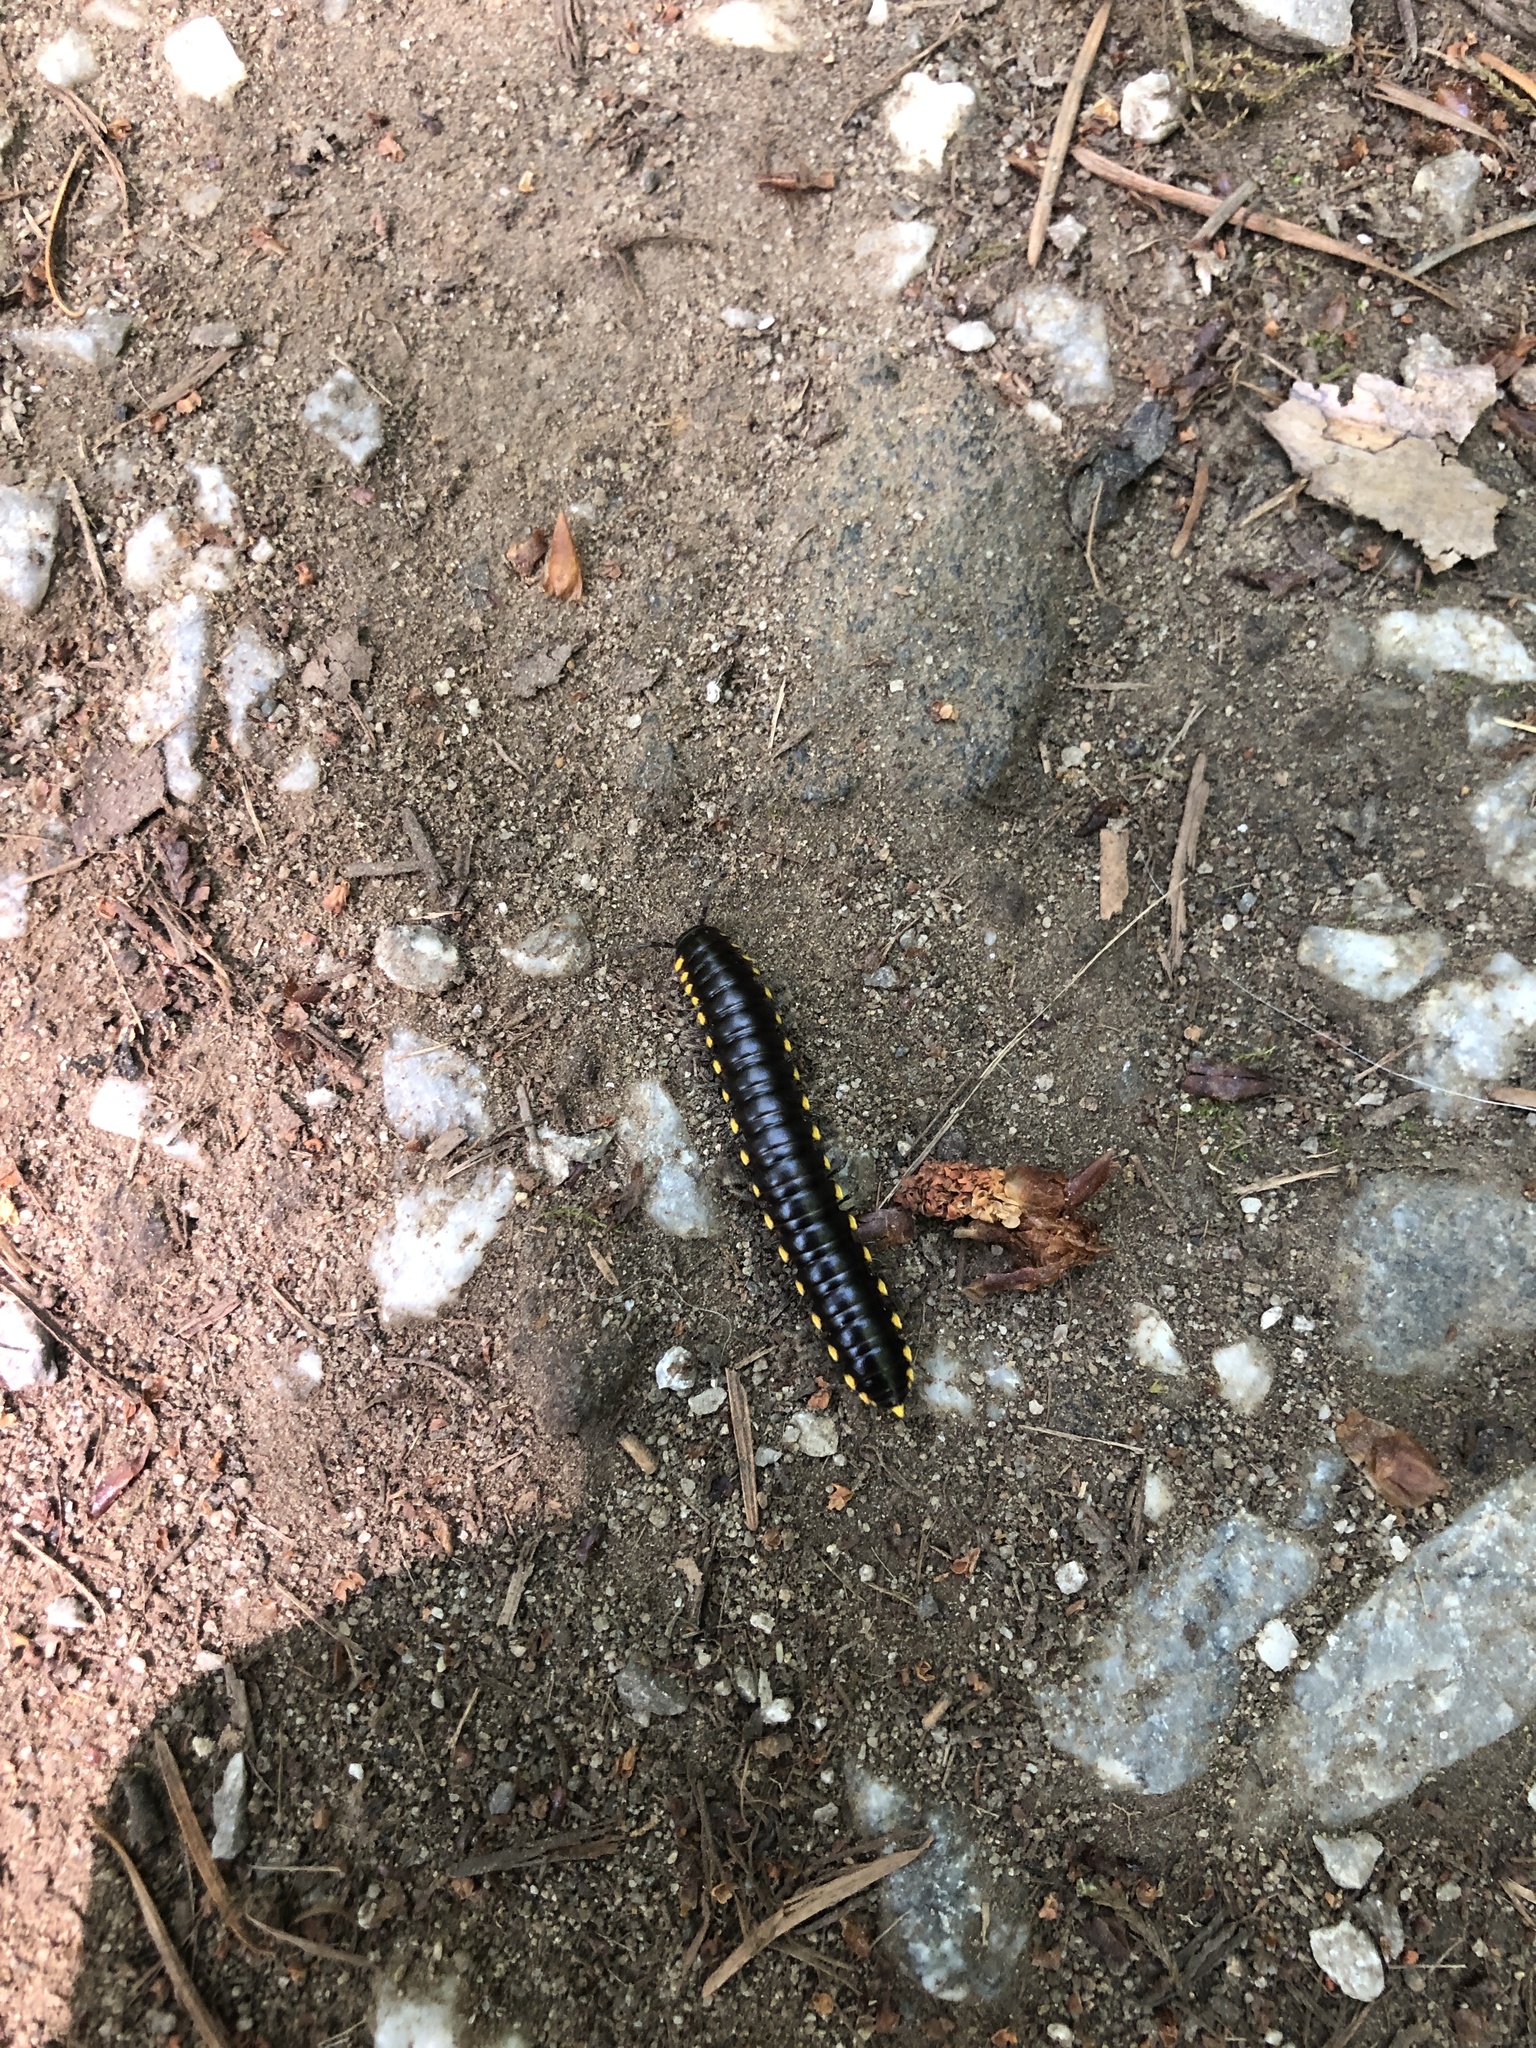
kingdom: Animalia
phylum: Arthropoda
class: Diplopoda
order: Polydesmida
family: Xystodesmidae
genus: Harpaphe
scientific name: Harpaphe haydeniana
